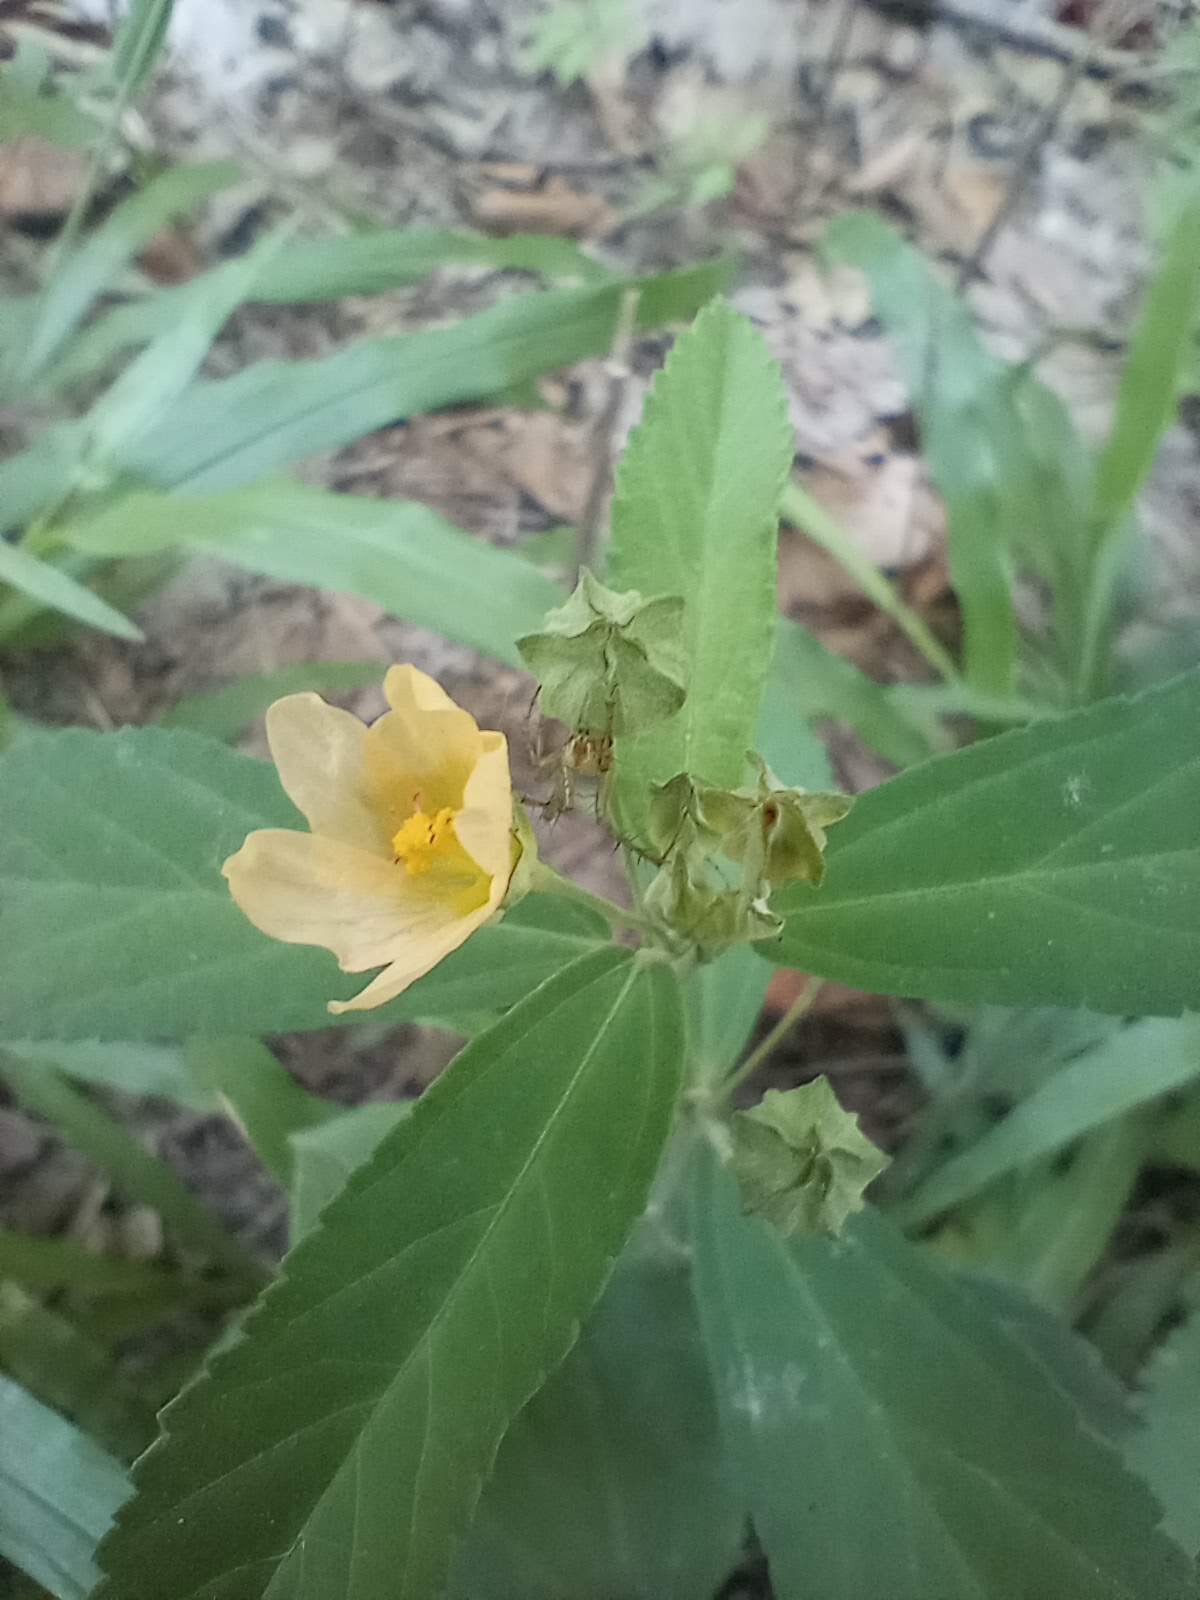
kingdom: Plantae
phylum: Tracheophyta
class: Magnoliopsida
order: Malvales
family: Malvaceae
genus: Sida
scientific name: Sida rhombifolia
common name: Queensland-hemp
